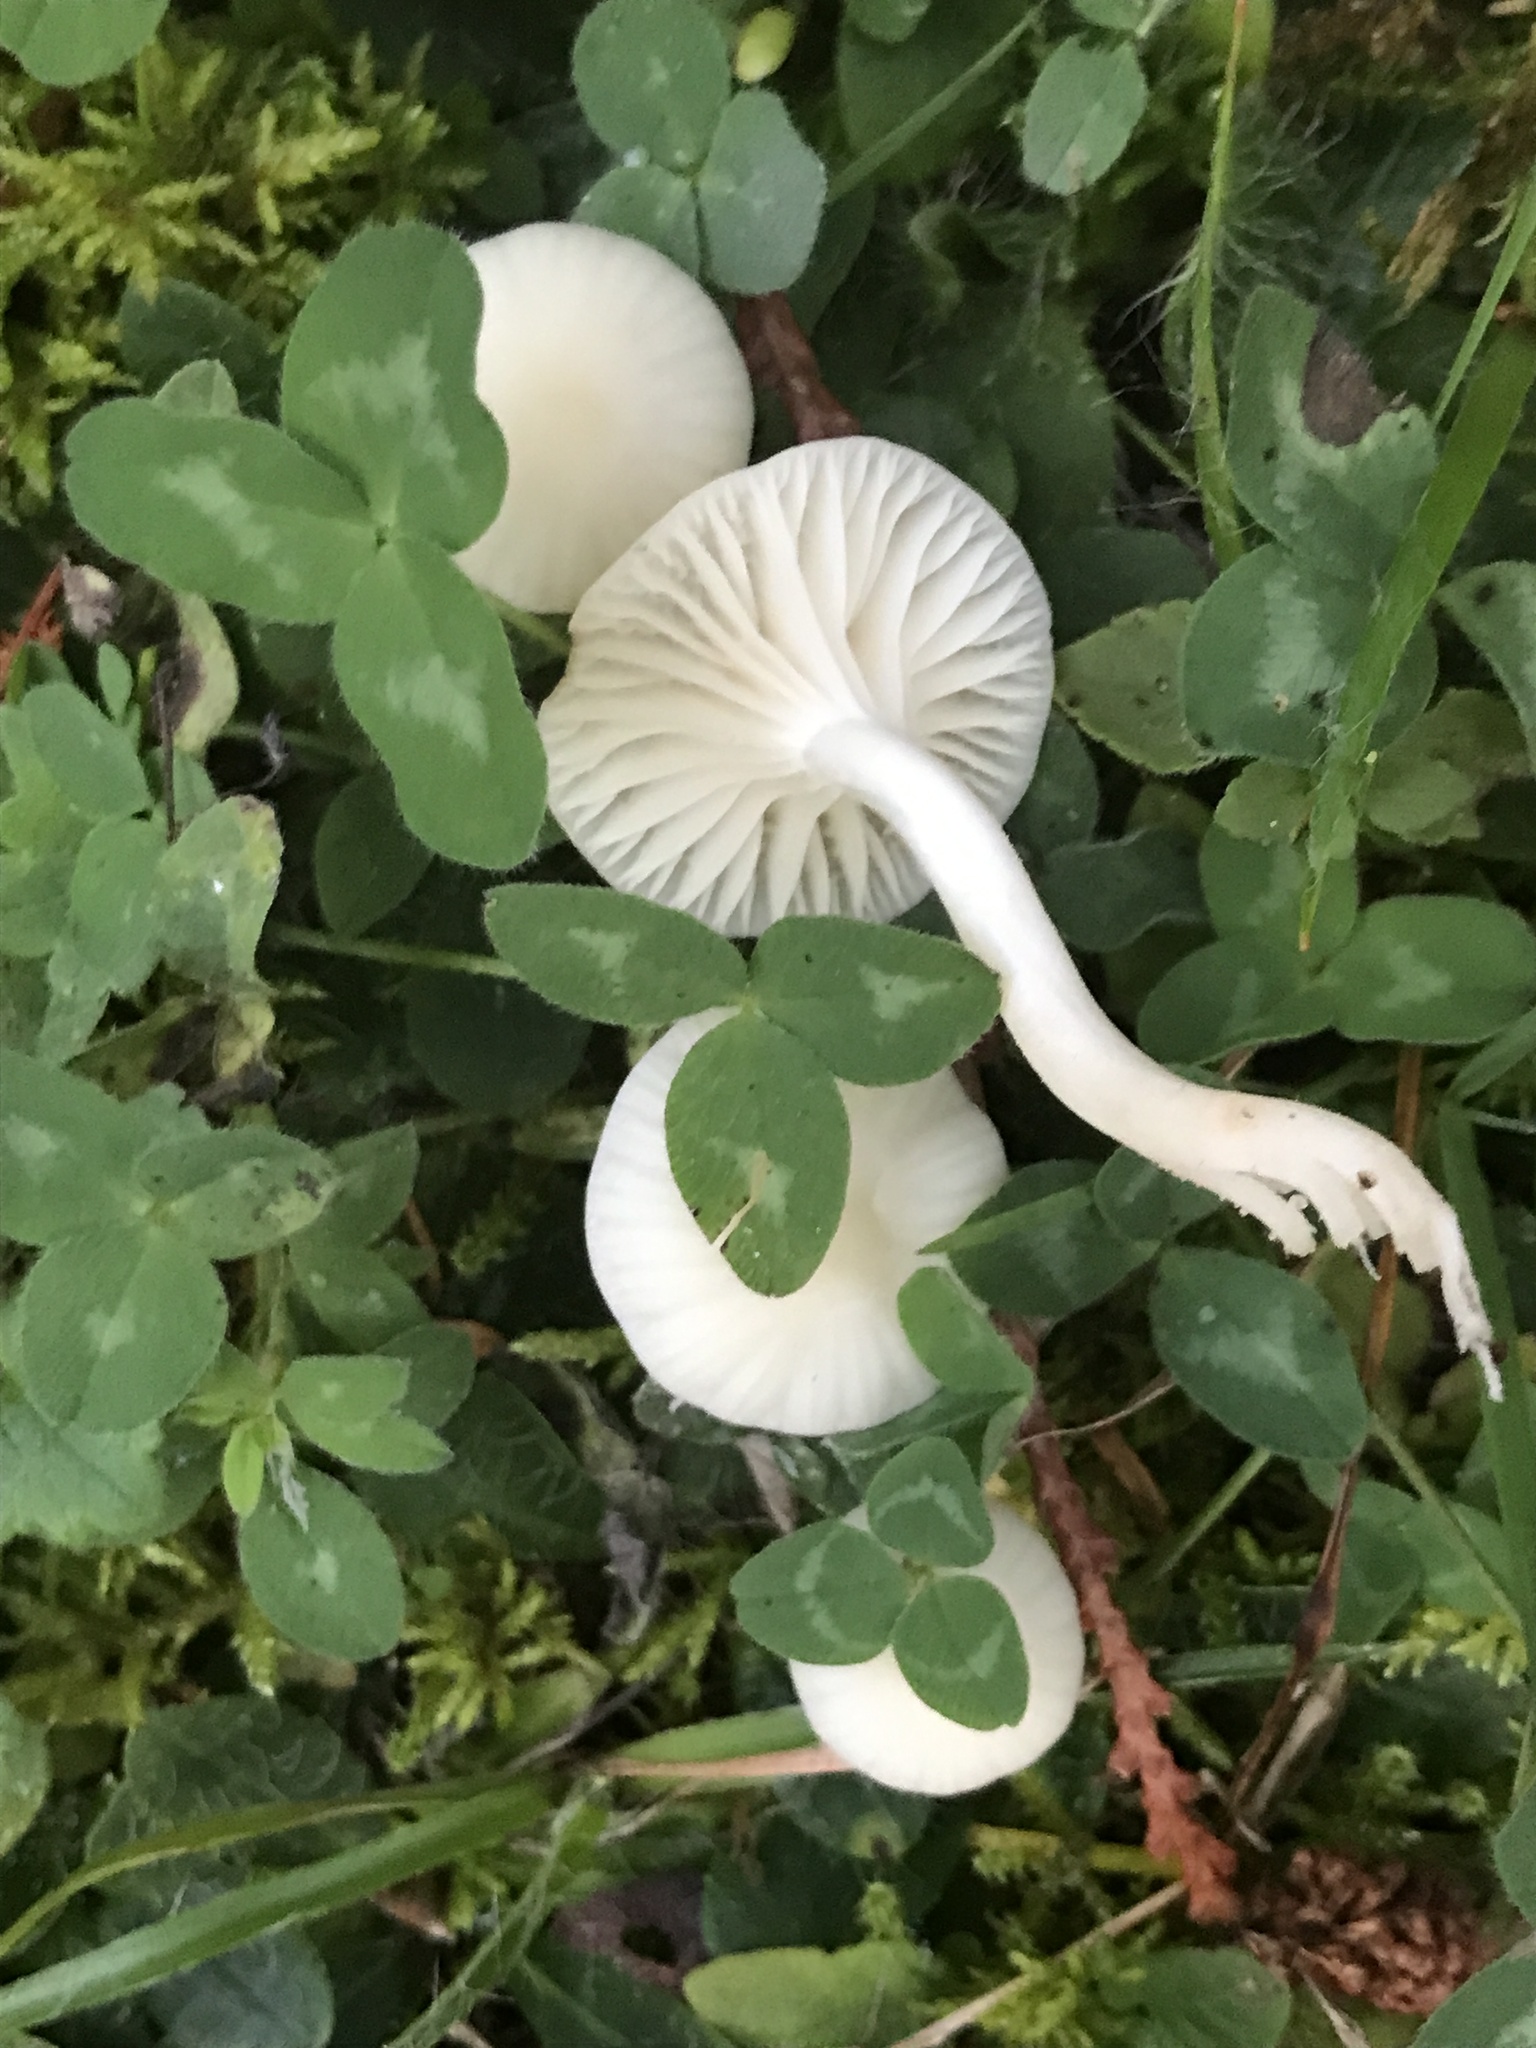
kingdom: Fungi
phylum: Basidiomycota
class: Agaricomycetes
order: Agaricales
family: Hygrophoraceae
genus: Cuphophyllus
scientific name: Cuphophyllus virgineus
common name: Snowy waxcap
